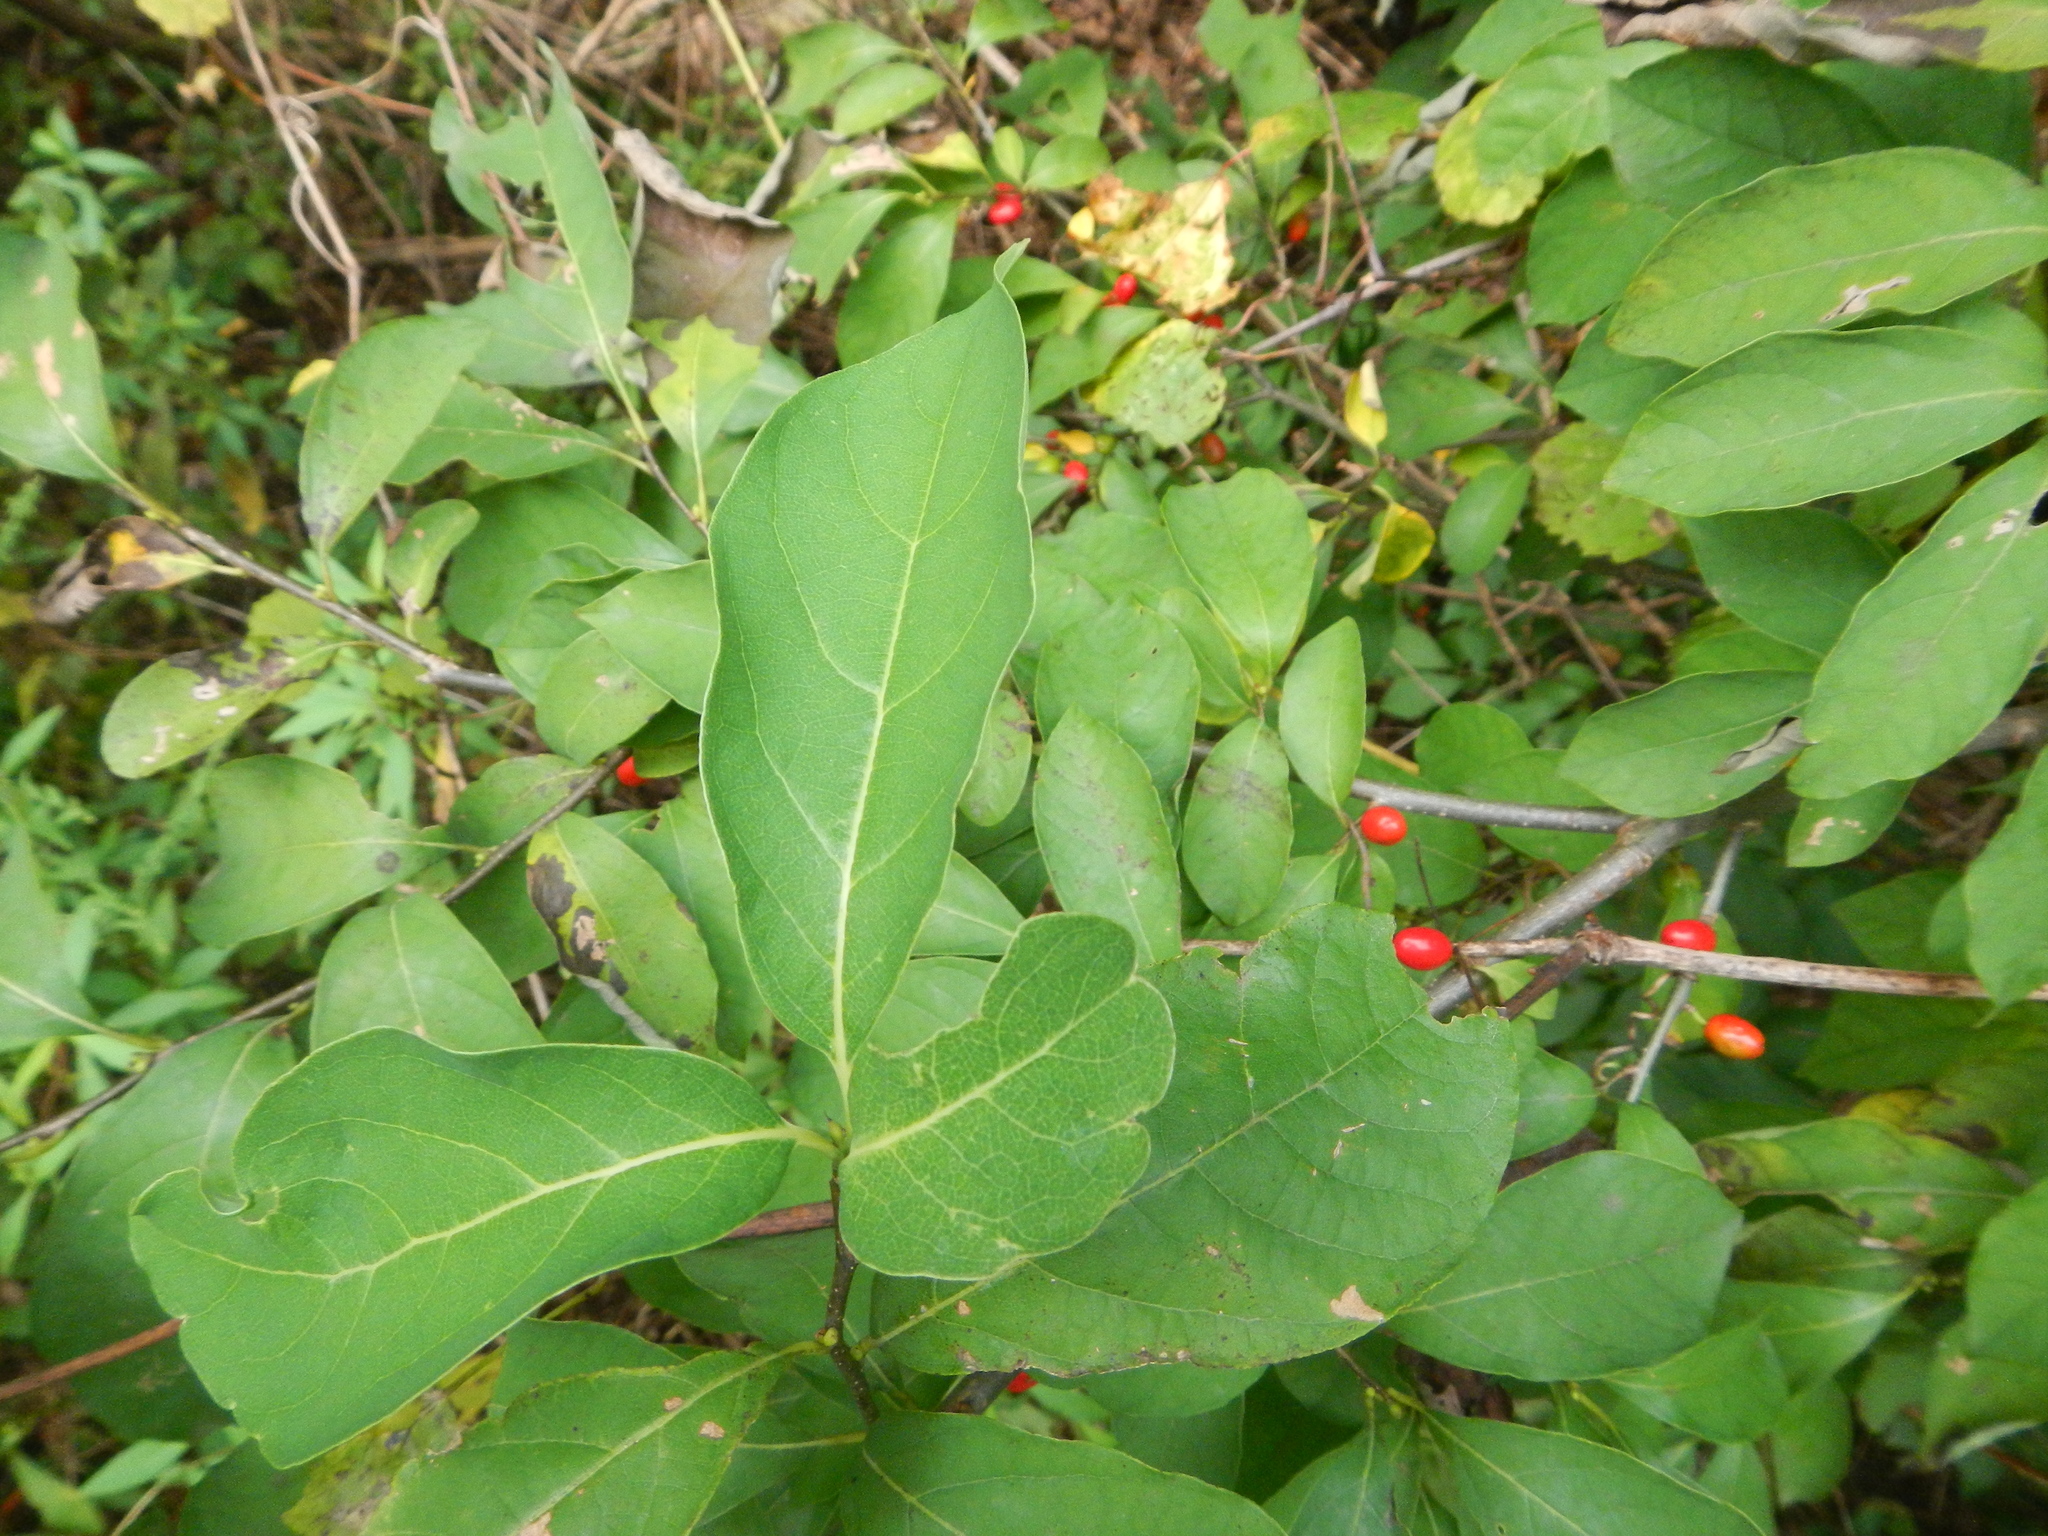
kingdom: Plantae
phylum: Tracheophyta
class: Magnoliopsida
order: Laurales
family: Lauraceae
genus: Lindera
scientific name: Lindera benzoin
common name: Spicebush
